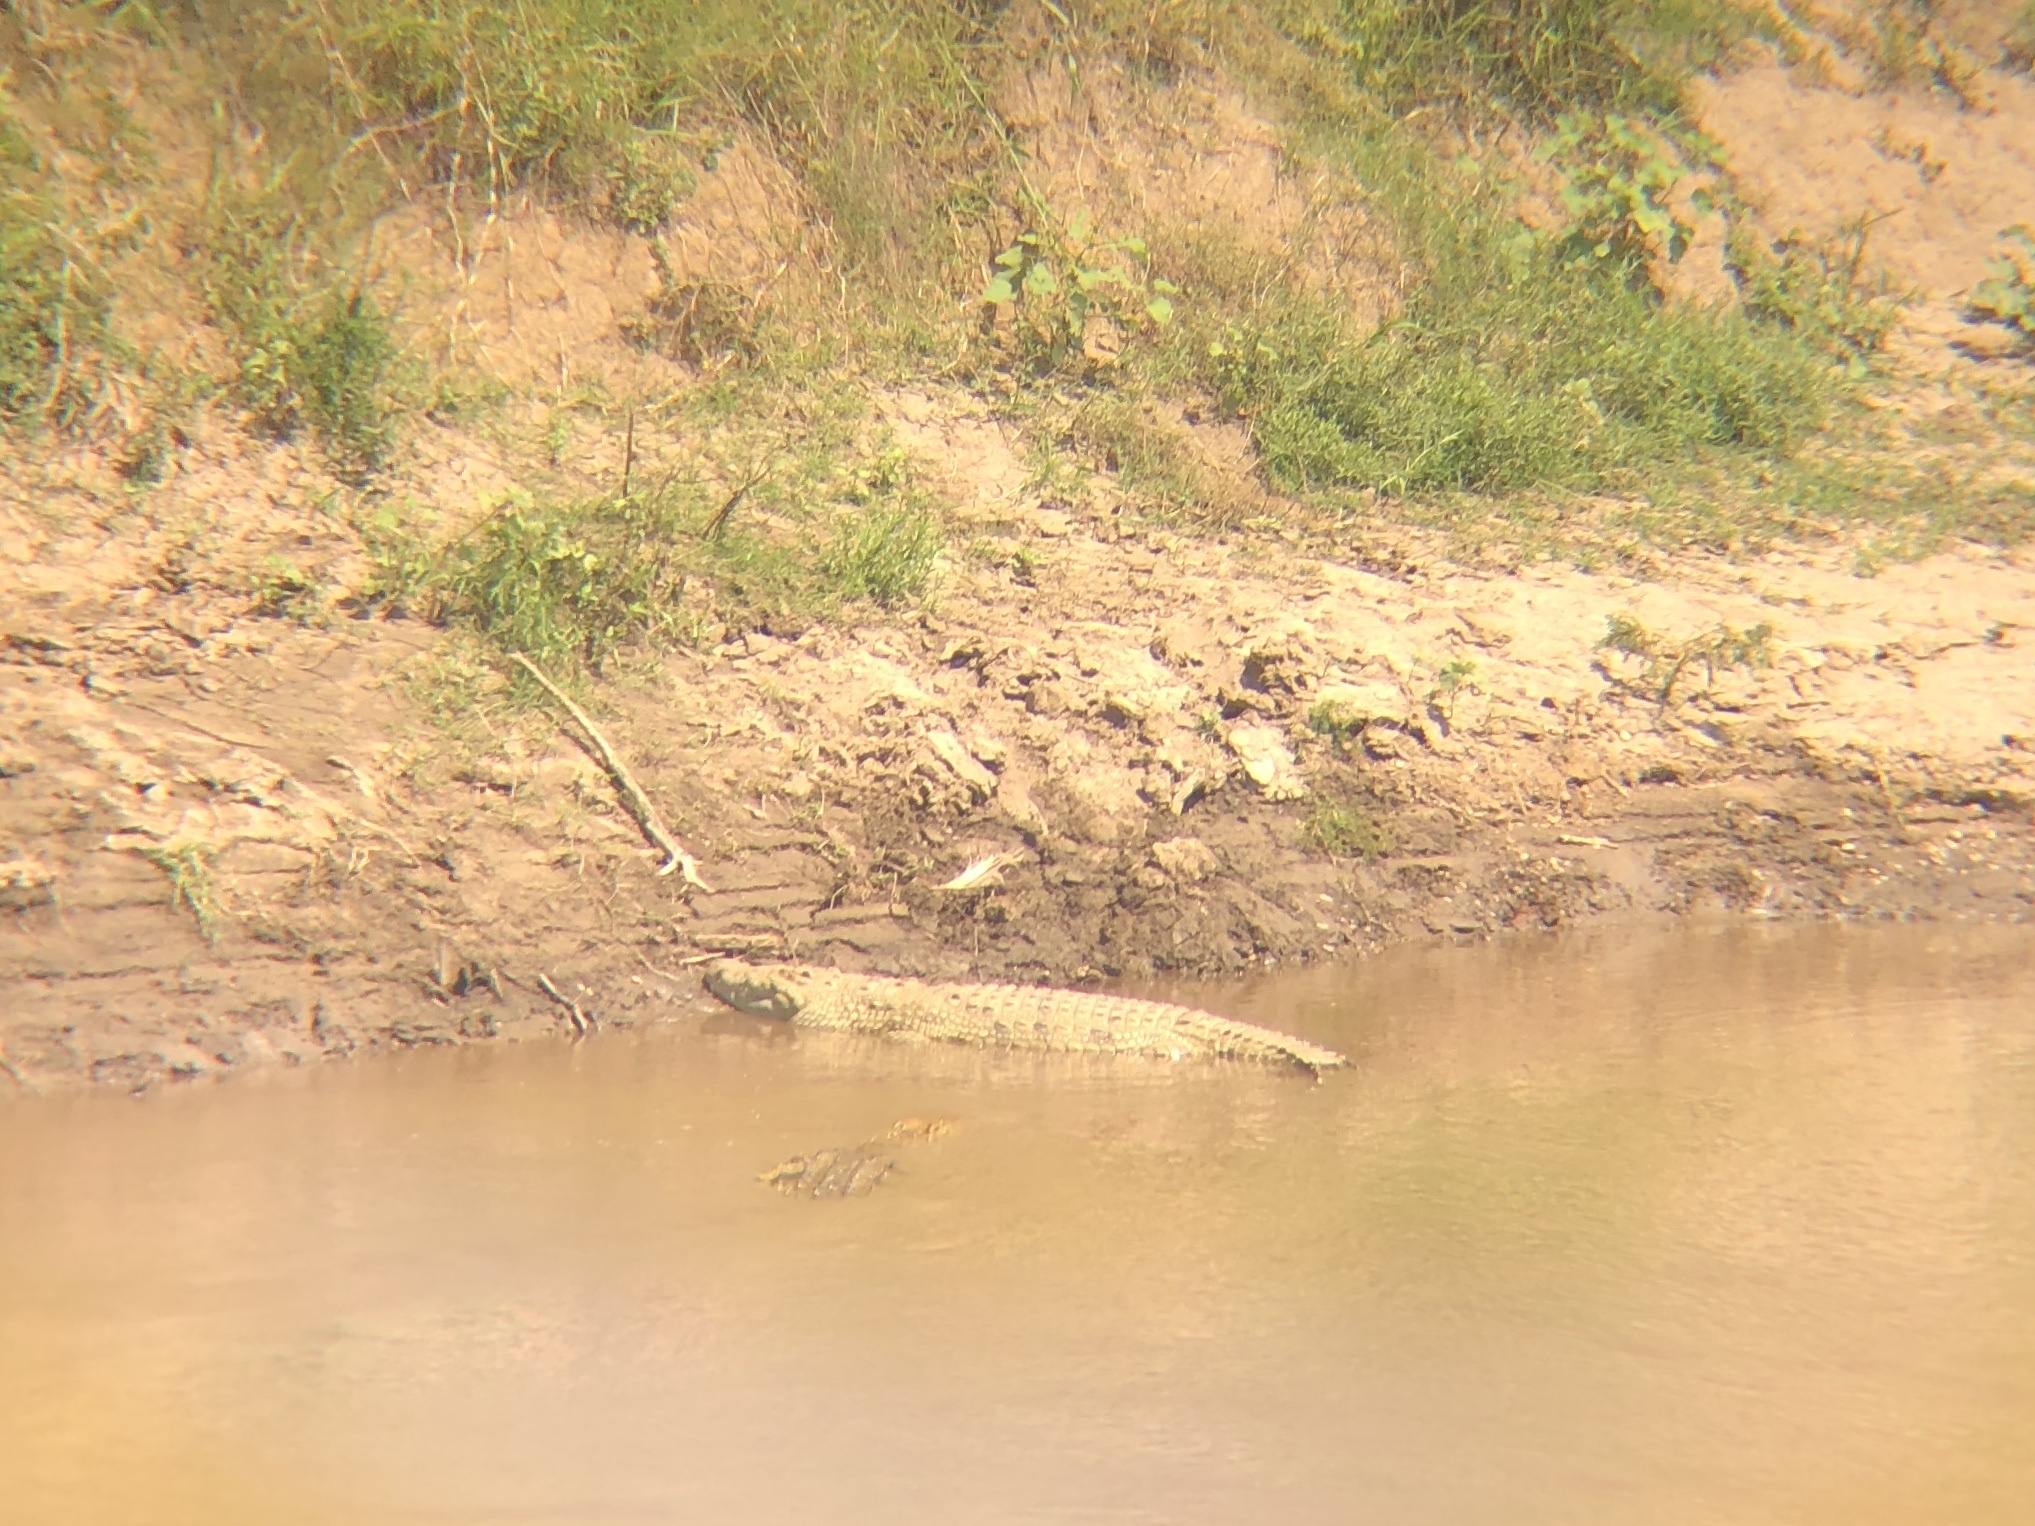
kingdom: Animalia
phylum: Chordata
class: Crocodylia
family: Crocodylidae
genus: Crocodylus
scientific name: Crocodylus niloticus
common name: Nile crocodile
